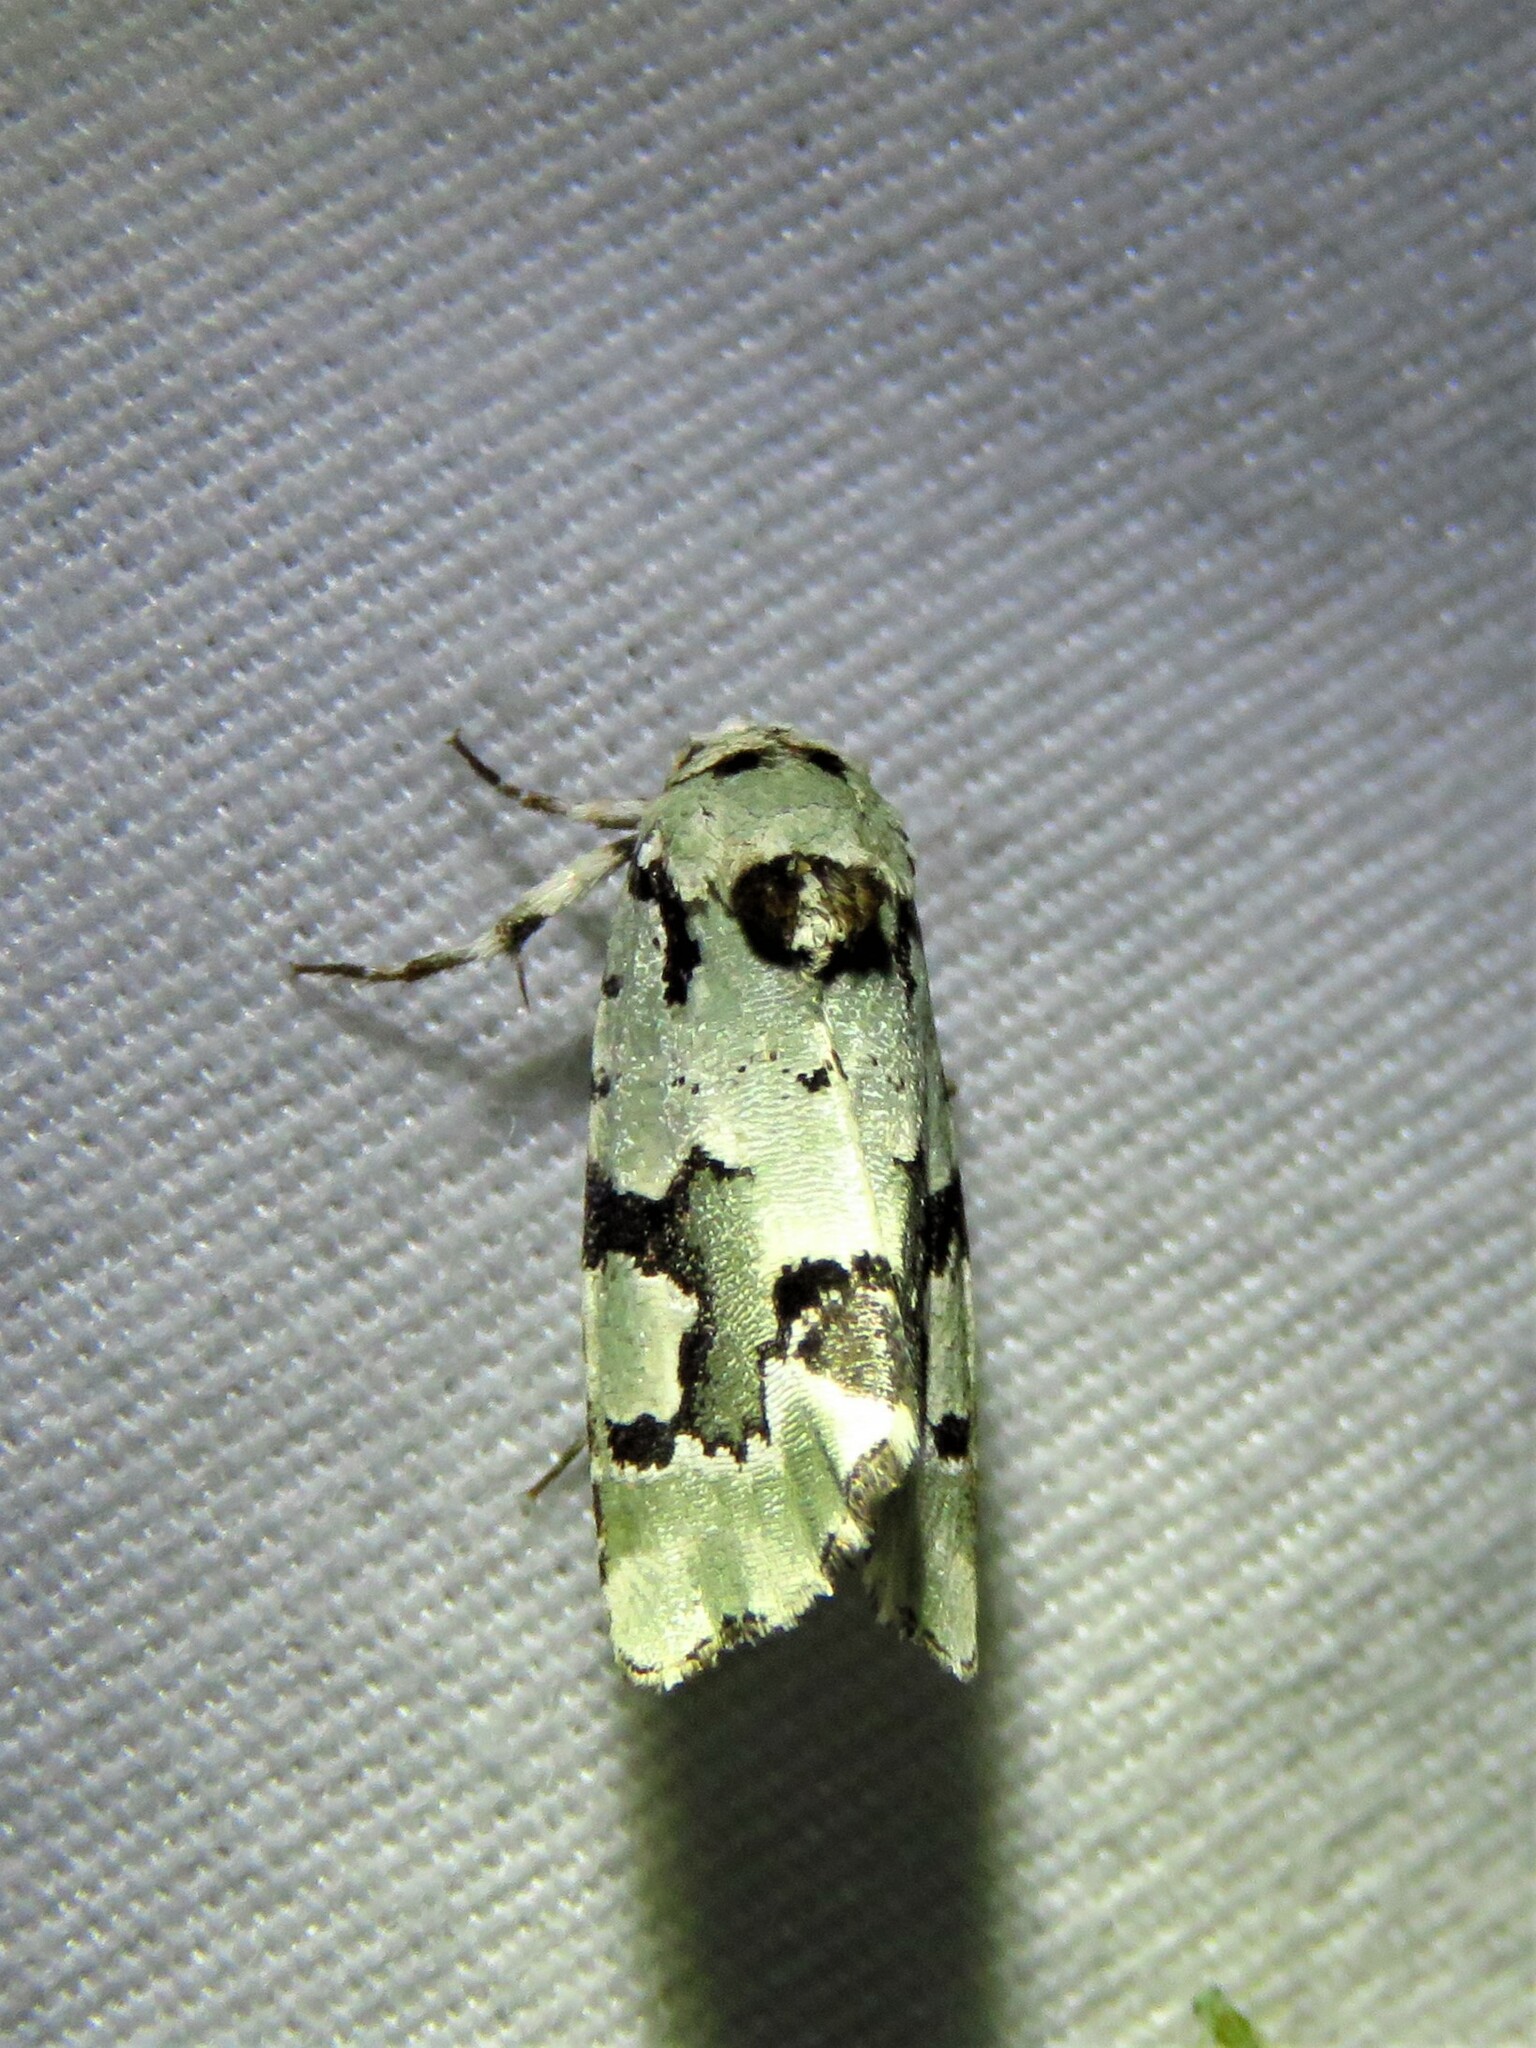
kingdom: Animalia
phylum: Arthropoda
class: Insecta
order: Lepidoptera
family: Noctuidae
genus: Emarginea
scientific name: Emarginea percara
